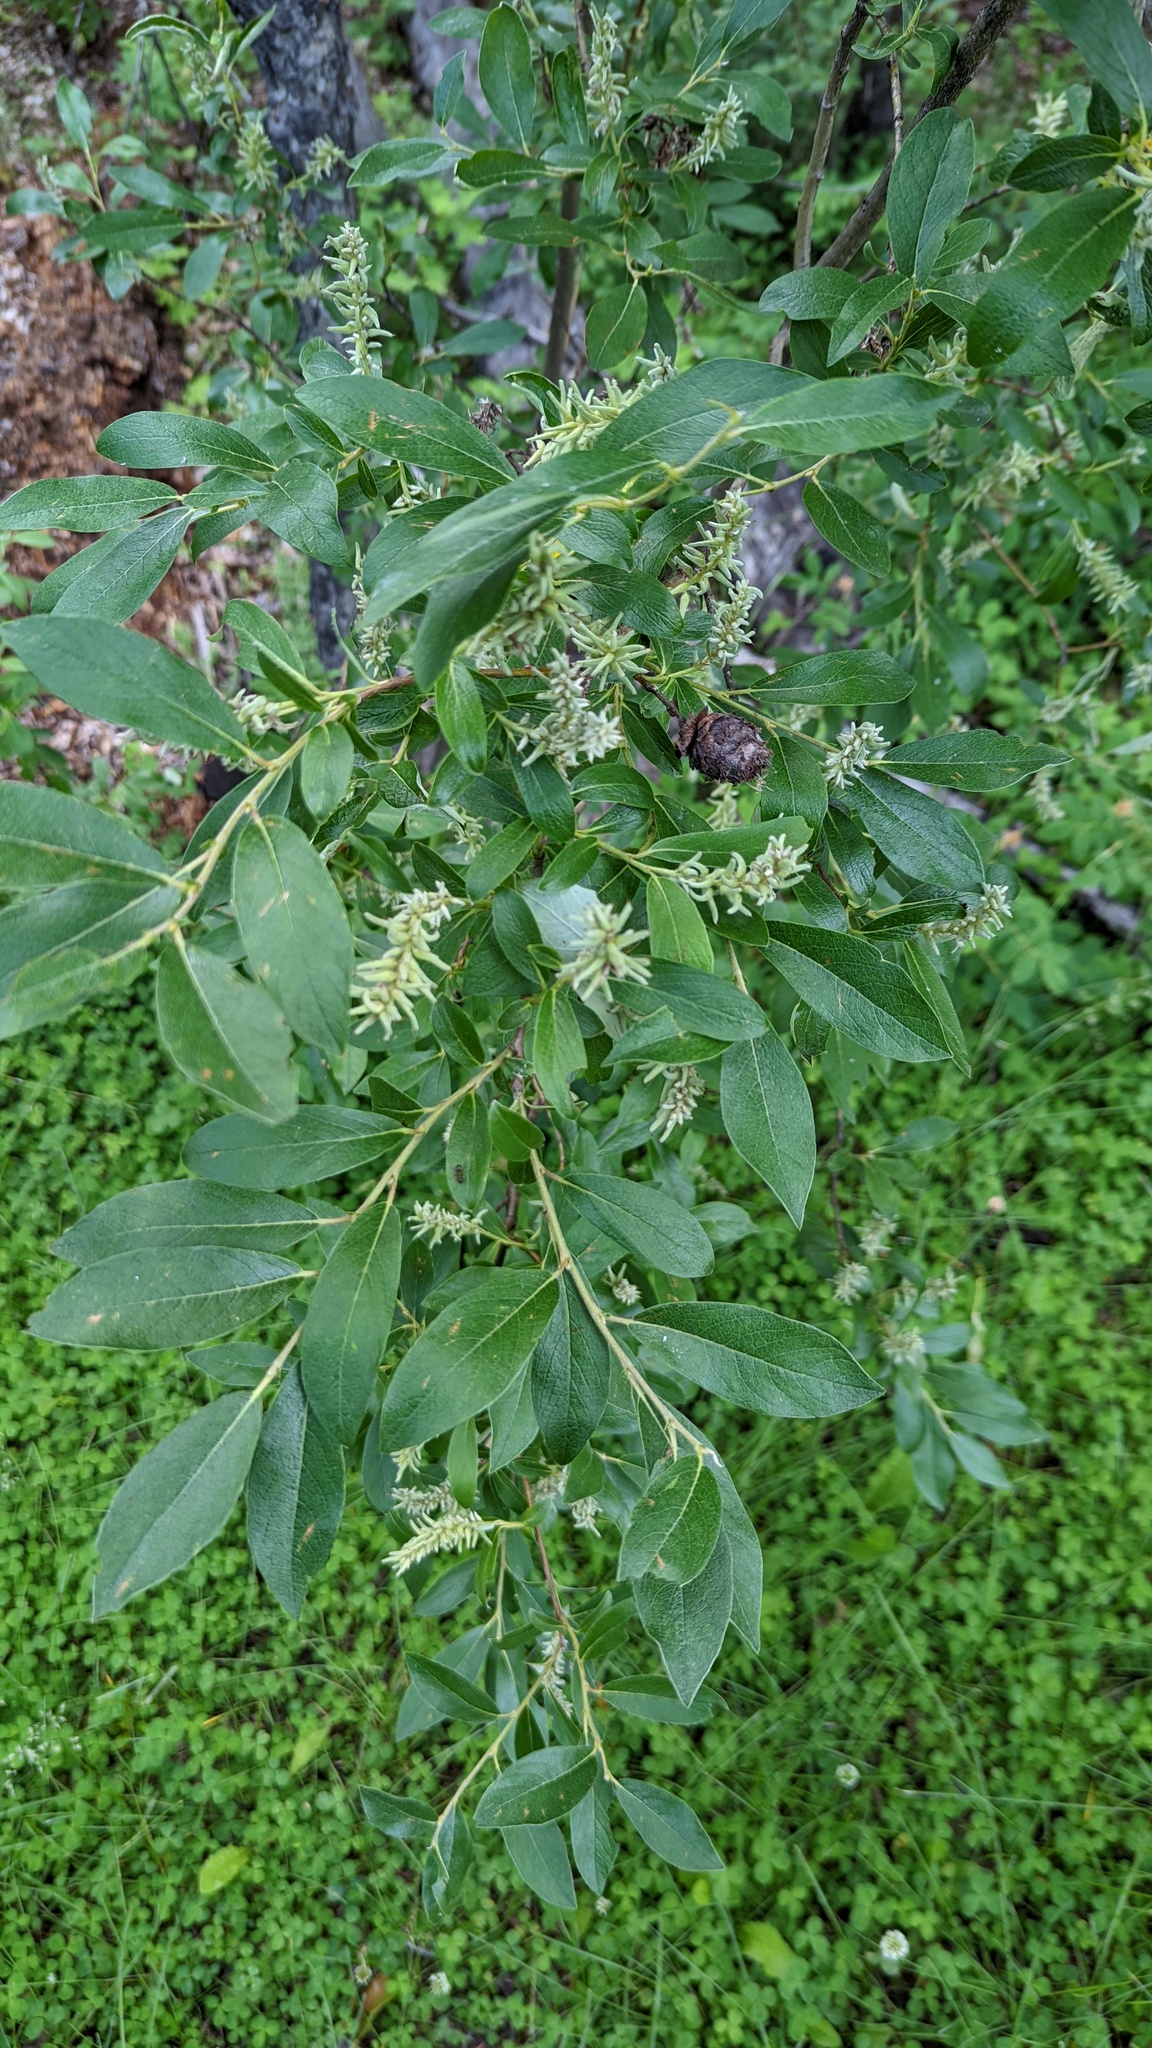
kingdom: Animalia
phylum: Arthropoda
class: Insecta
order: Diptera
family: Cecidomyiidae
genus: Rabdophaga
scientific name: Rabdophaga strobiloides
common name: Willow pinecone gall midge
